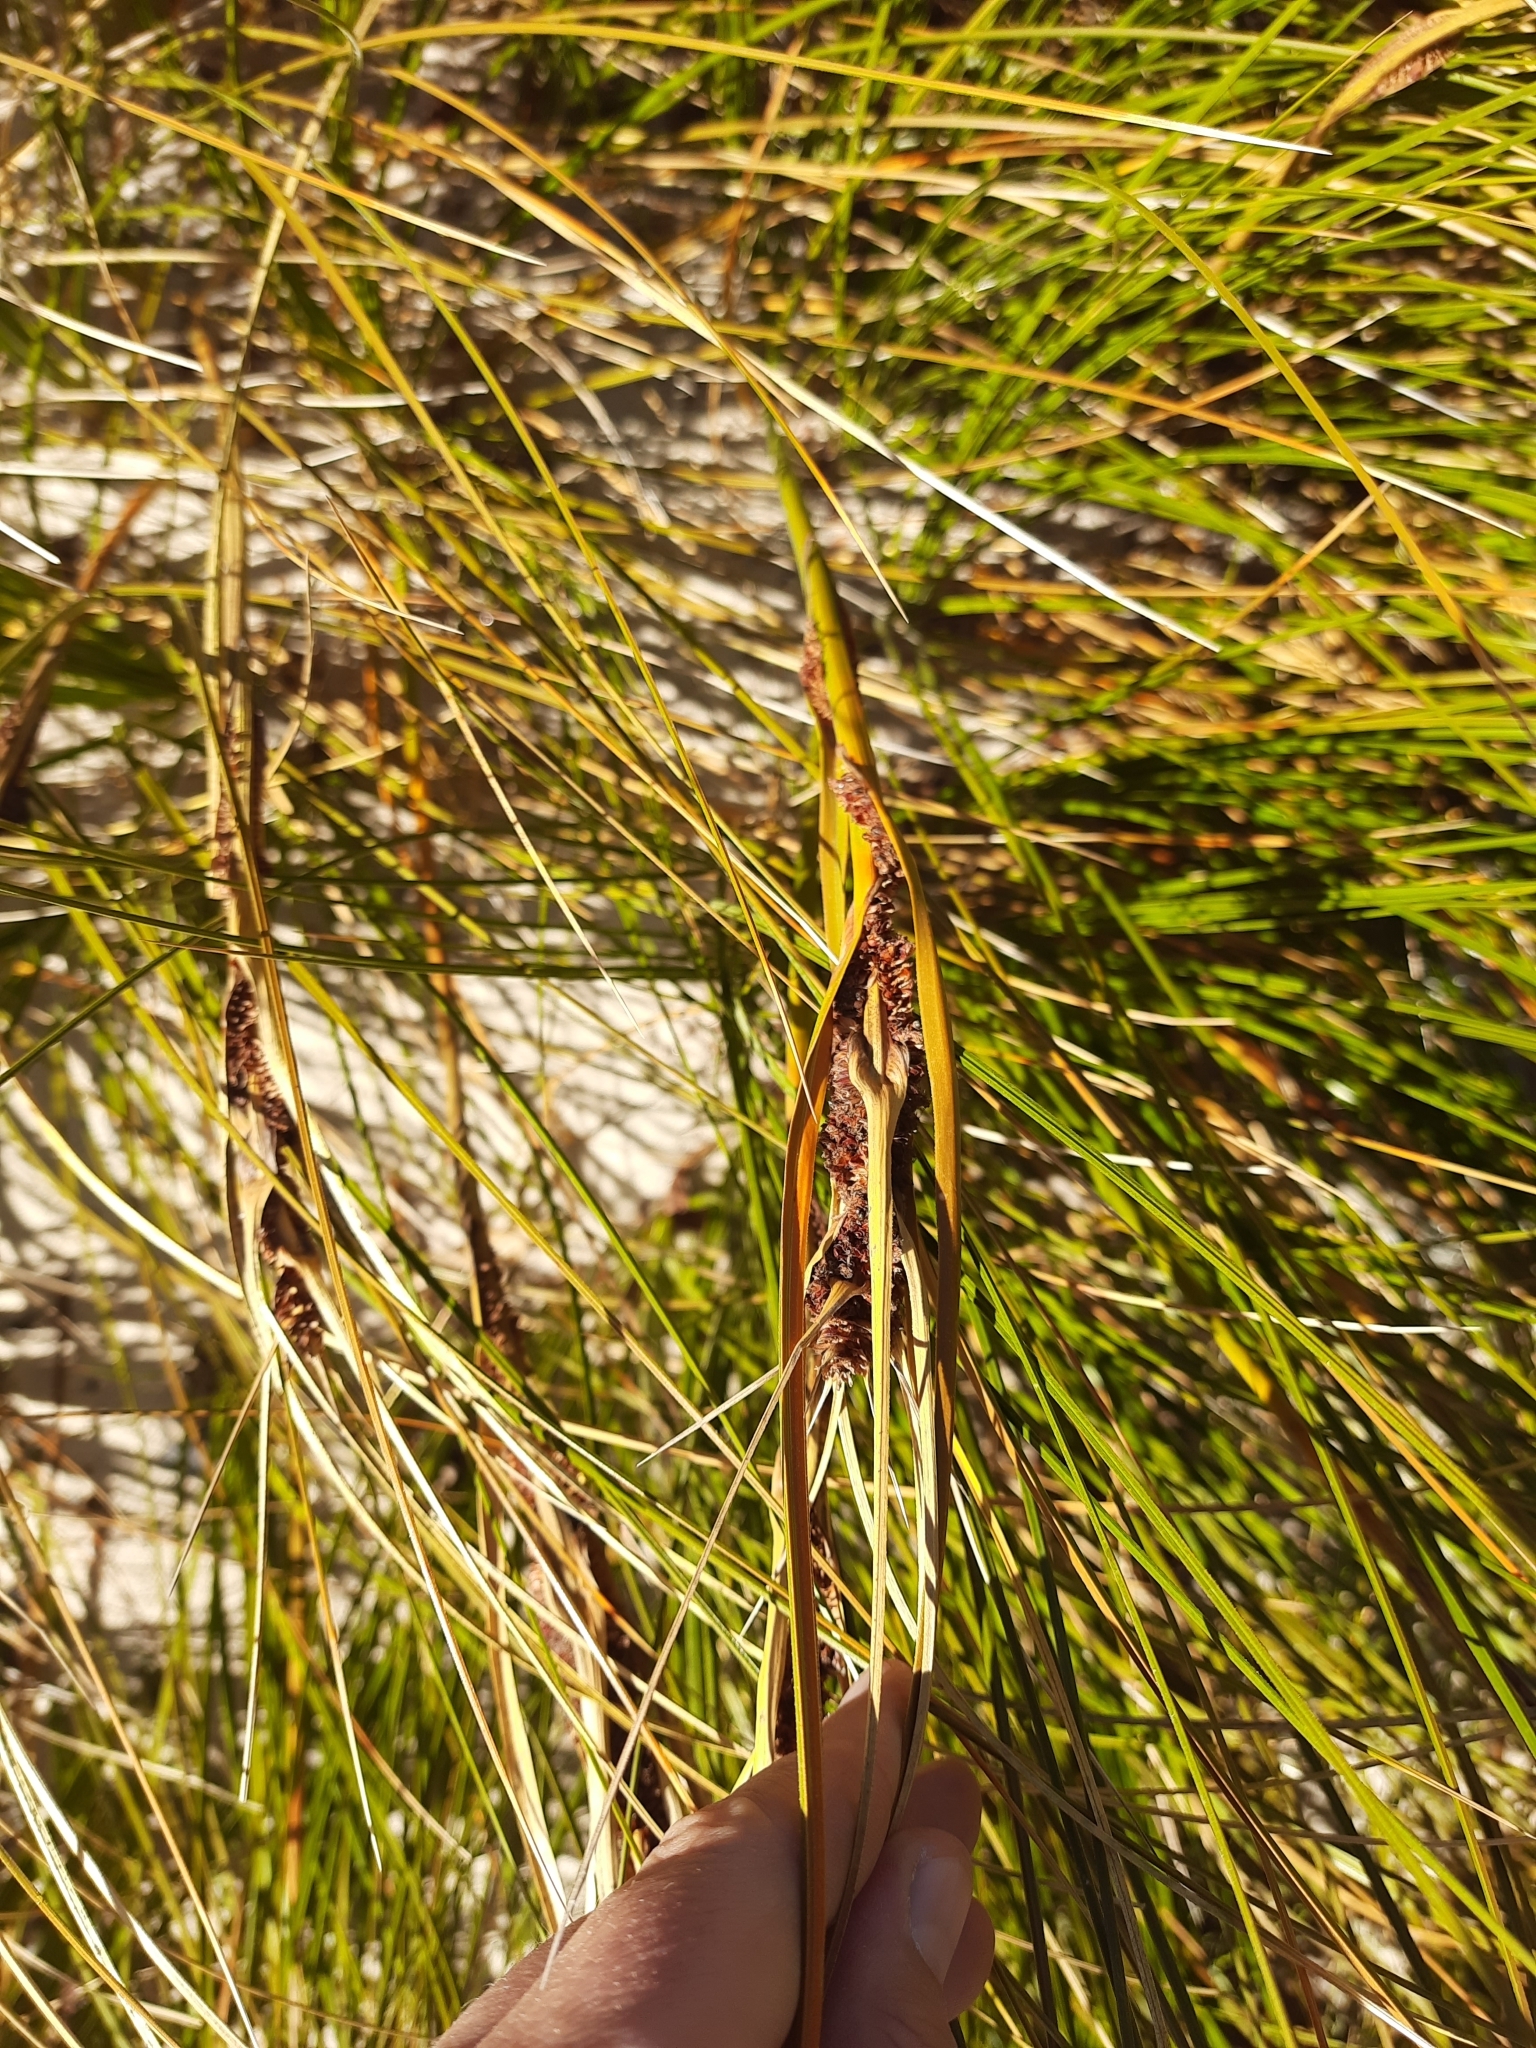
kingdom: Plantae
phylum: Tracheophyta
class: Liliopsida
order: Poales
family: Cyperaceae
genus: Ficinia
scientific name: Ficinia spiralis
